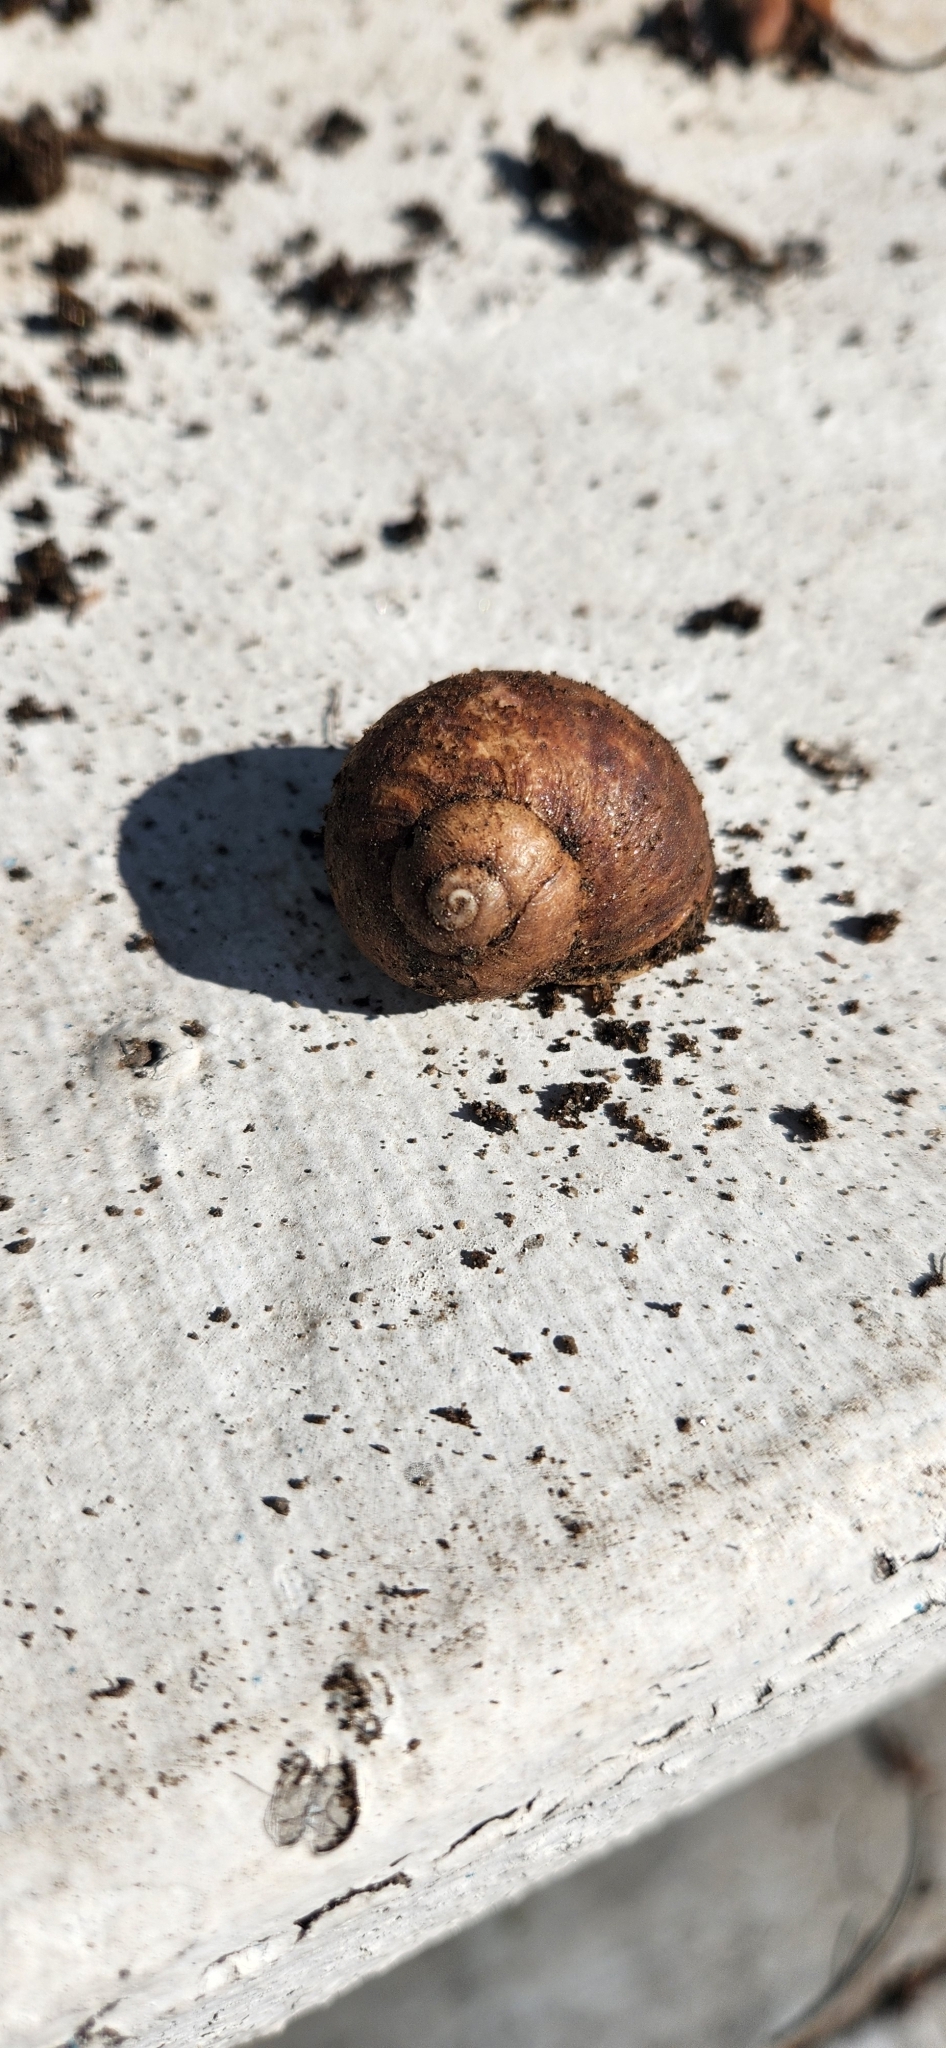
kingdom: Animalia
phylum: Mollusca
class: Gastropoda
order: Stylommatophora
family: Helicidae
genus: Cornu
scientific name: Cornu aspersum
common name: Brown garden snail
